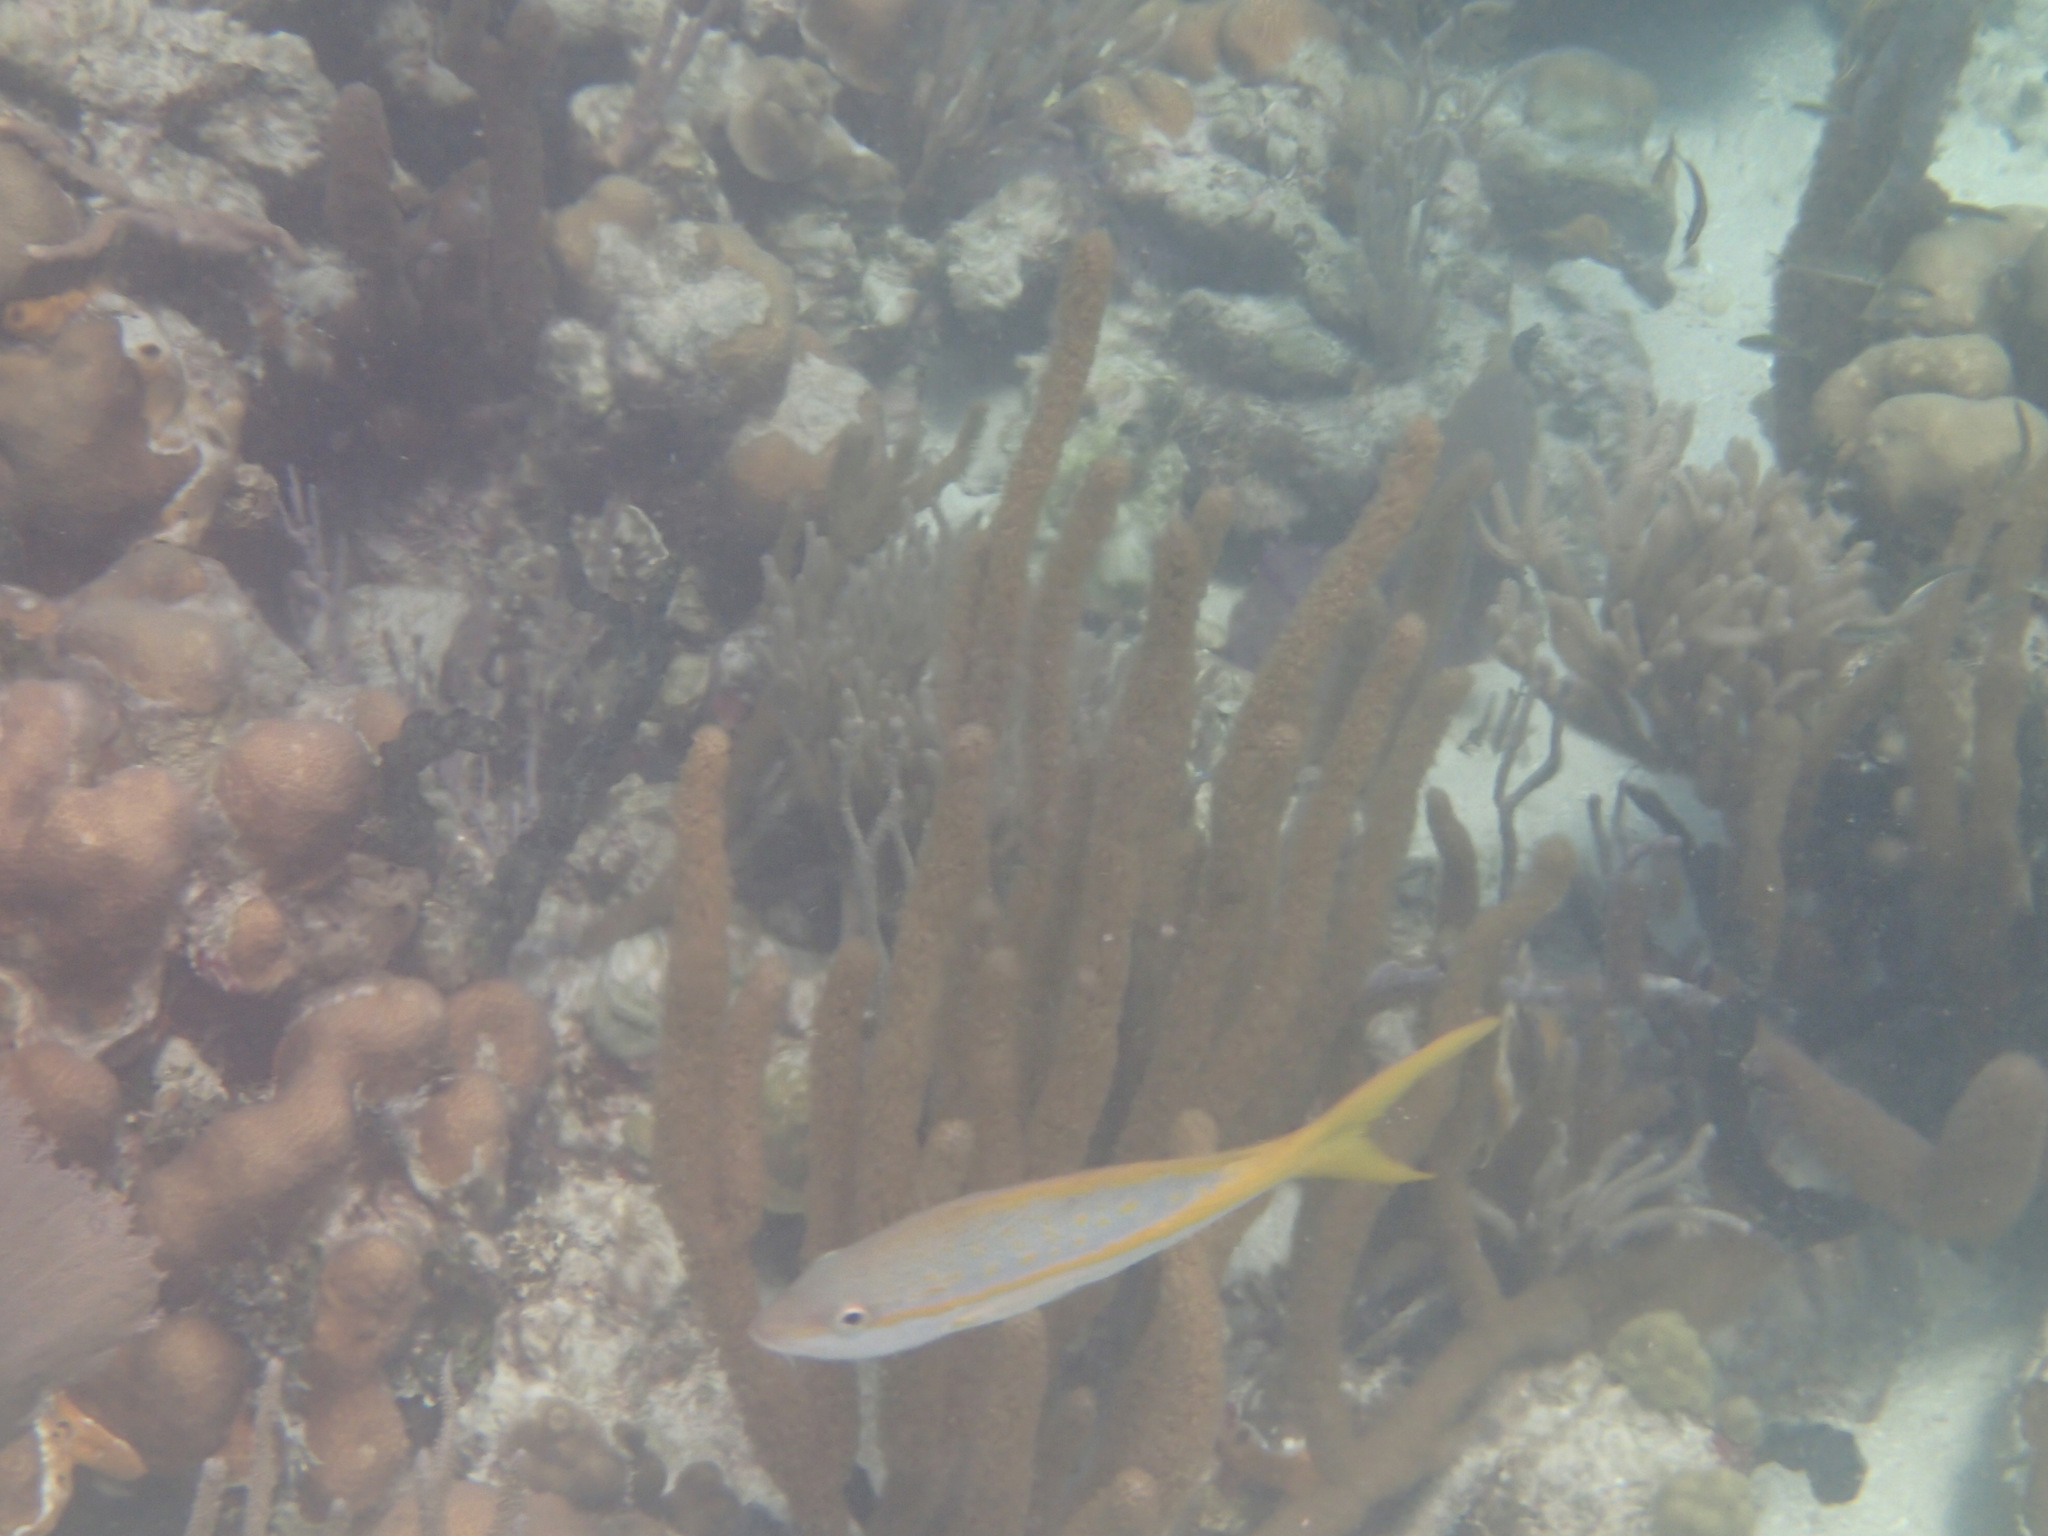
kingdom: Animalia
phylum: Chordata
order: Perciformes
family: Lutjanidae
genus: Ocyurus
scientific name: Ocyurus chrysurus
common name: Yellowtail snapper
